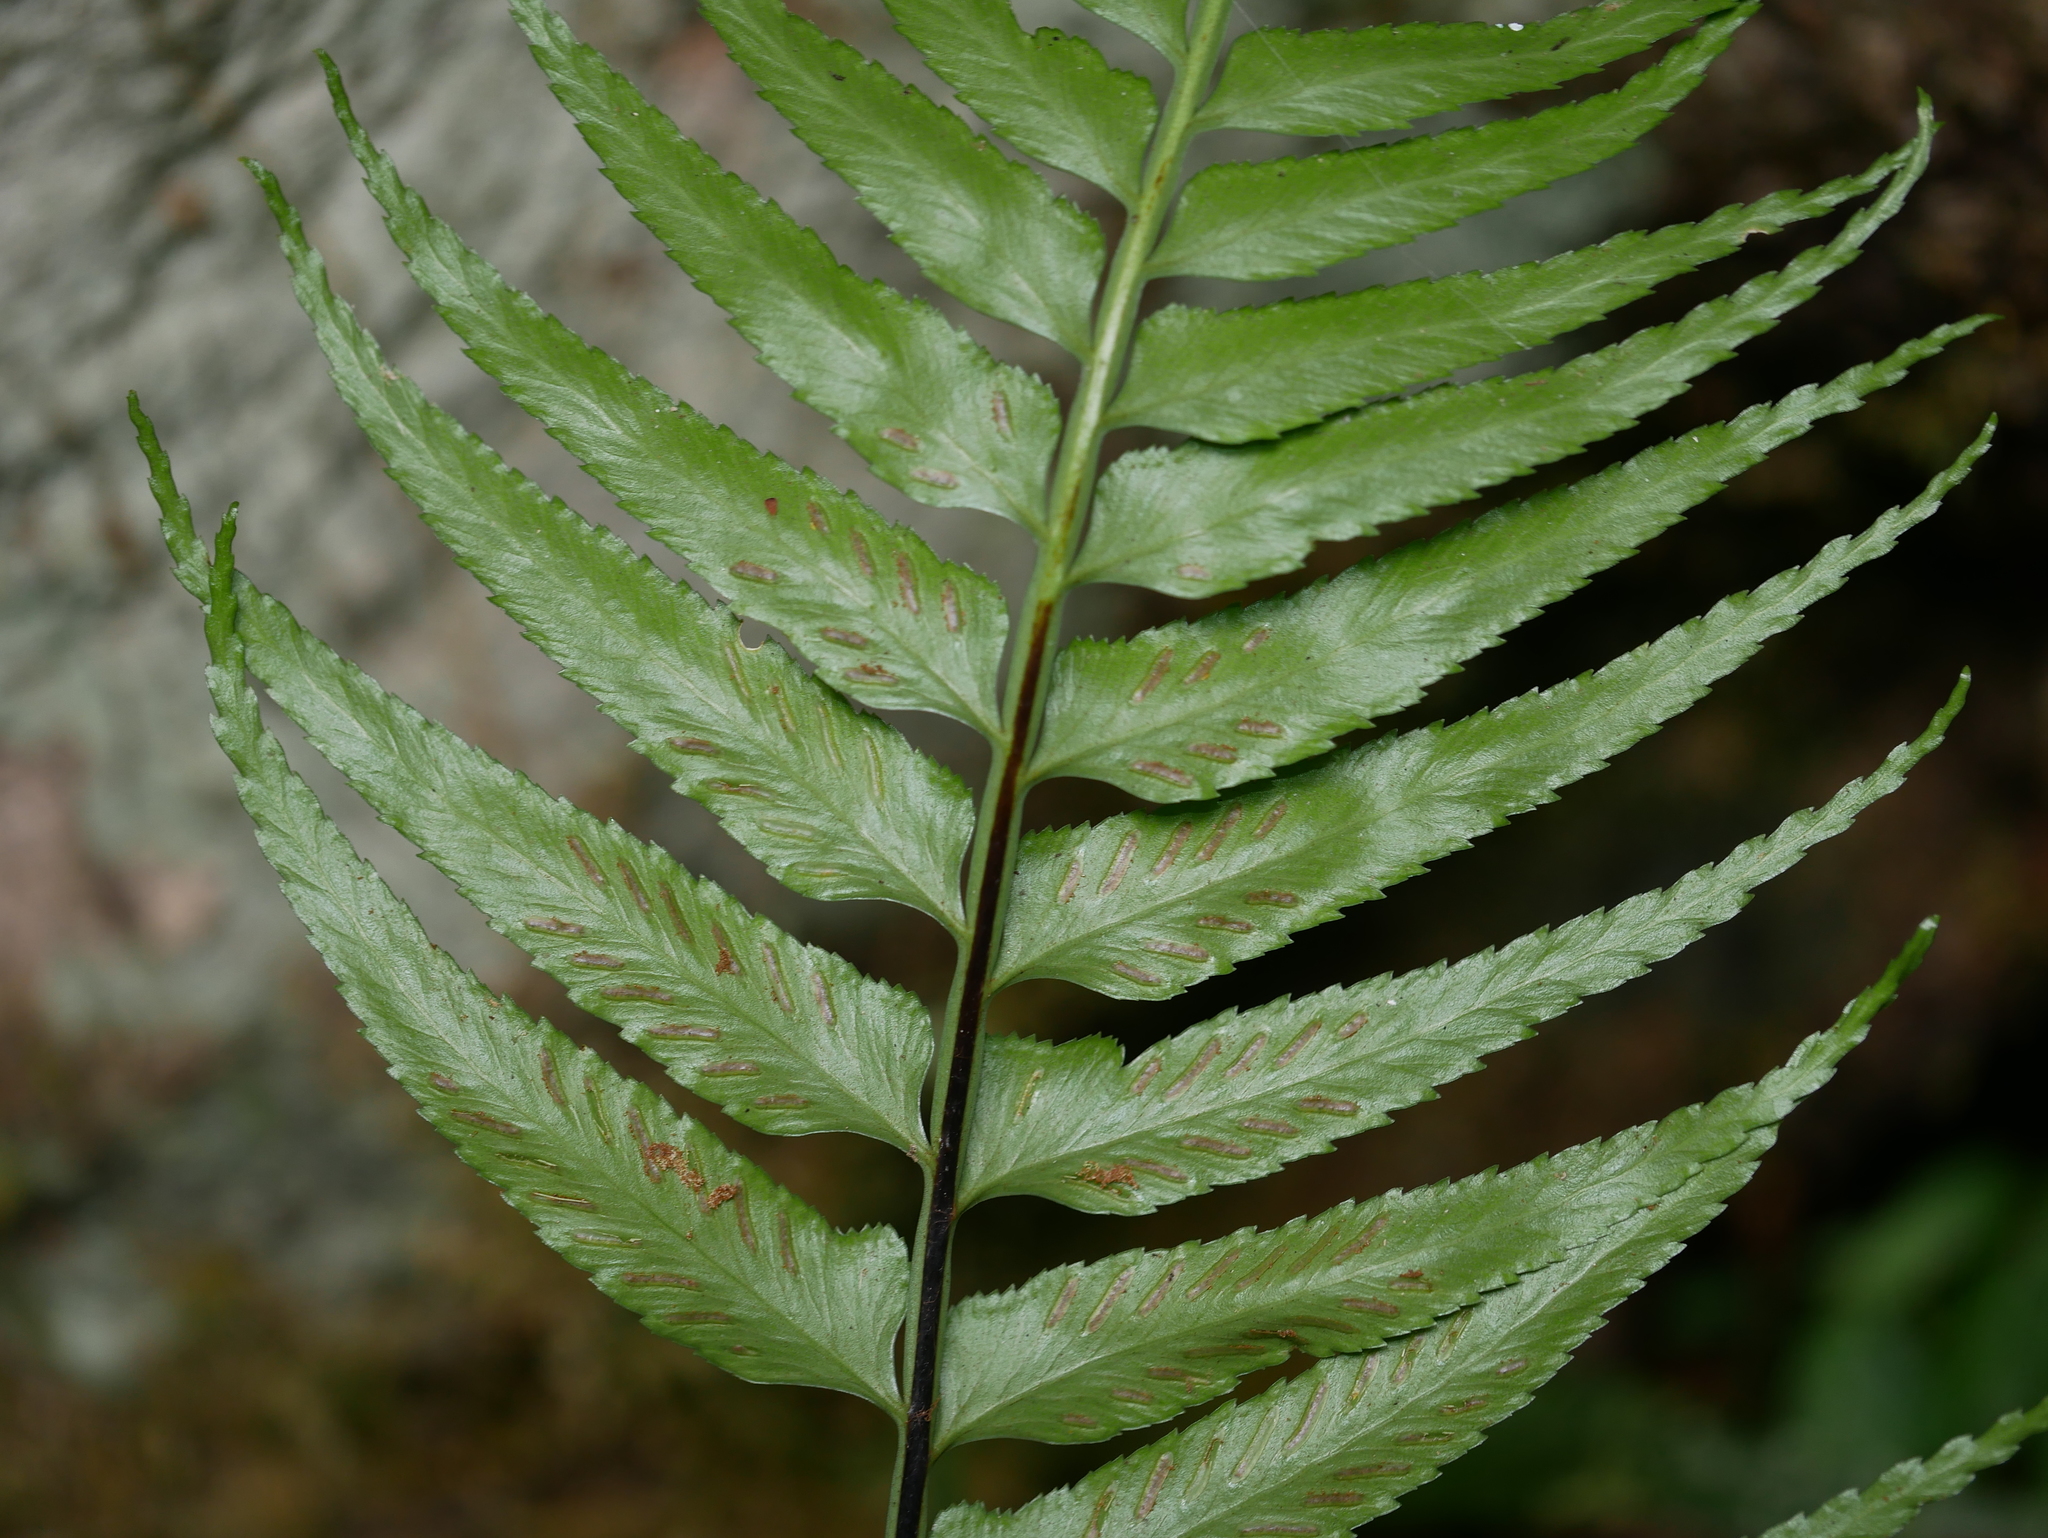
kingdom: Plantae
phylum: Tracheophyta
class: Polypodiopsida
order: Polypodiales
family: Aspleniaceae
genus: Asplenium
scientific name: Asplenium wrightii
